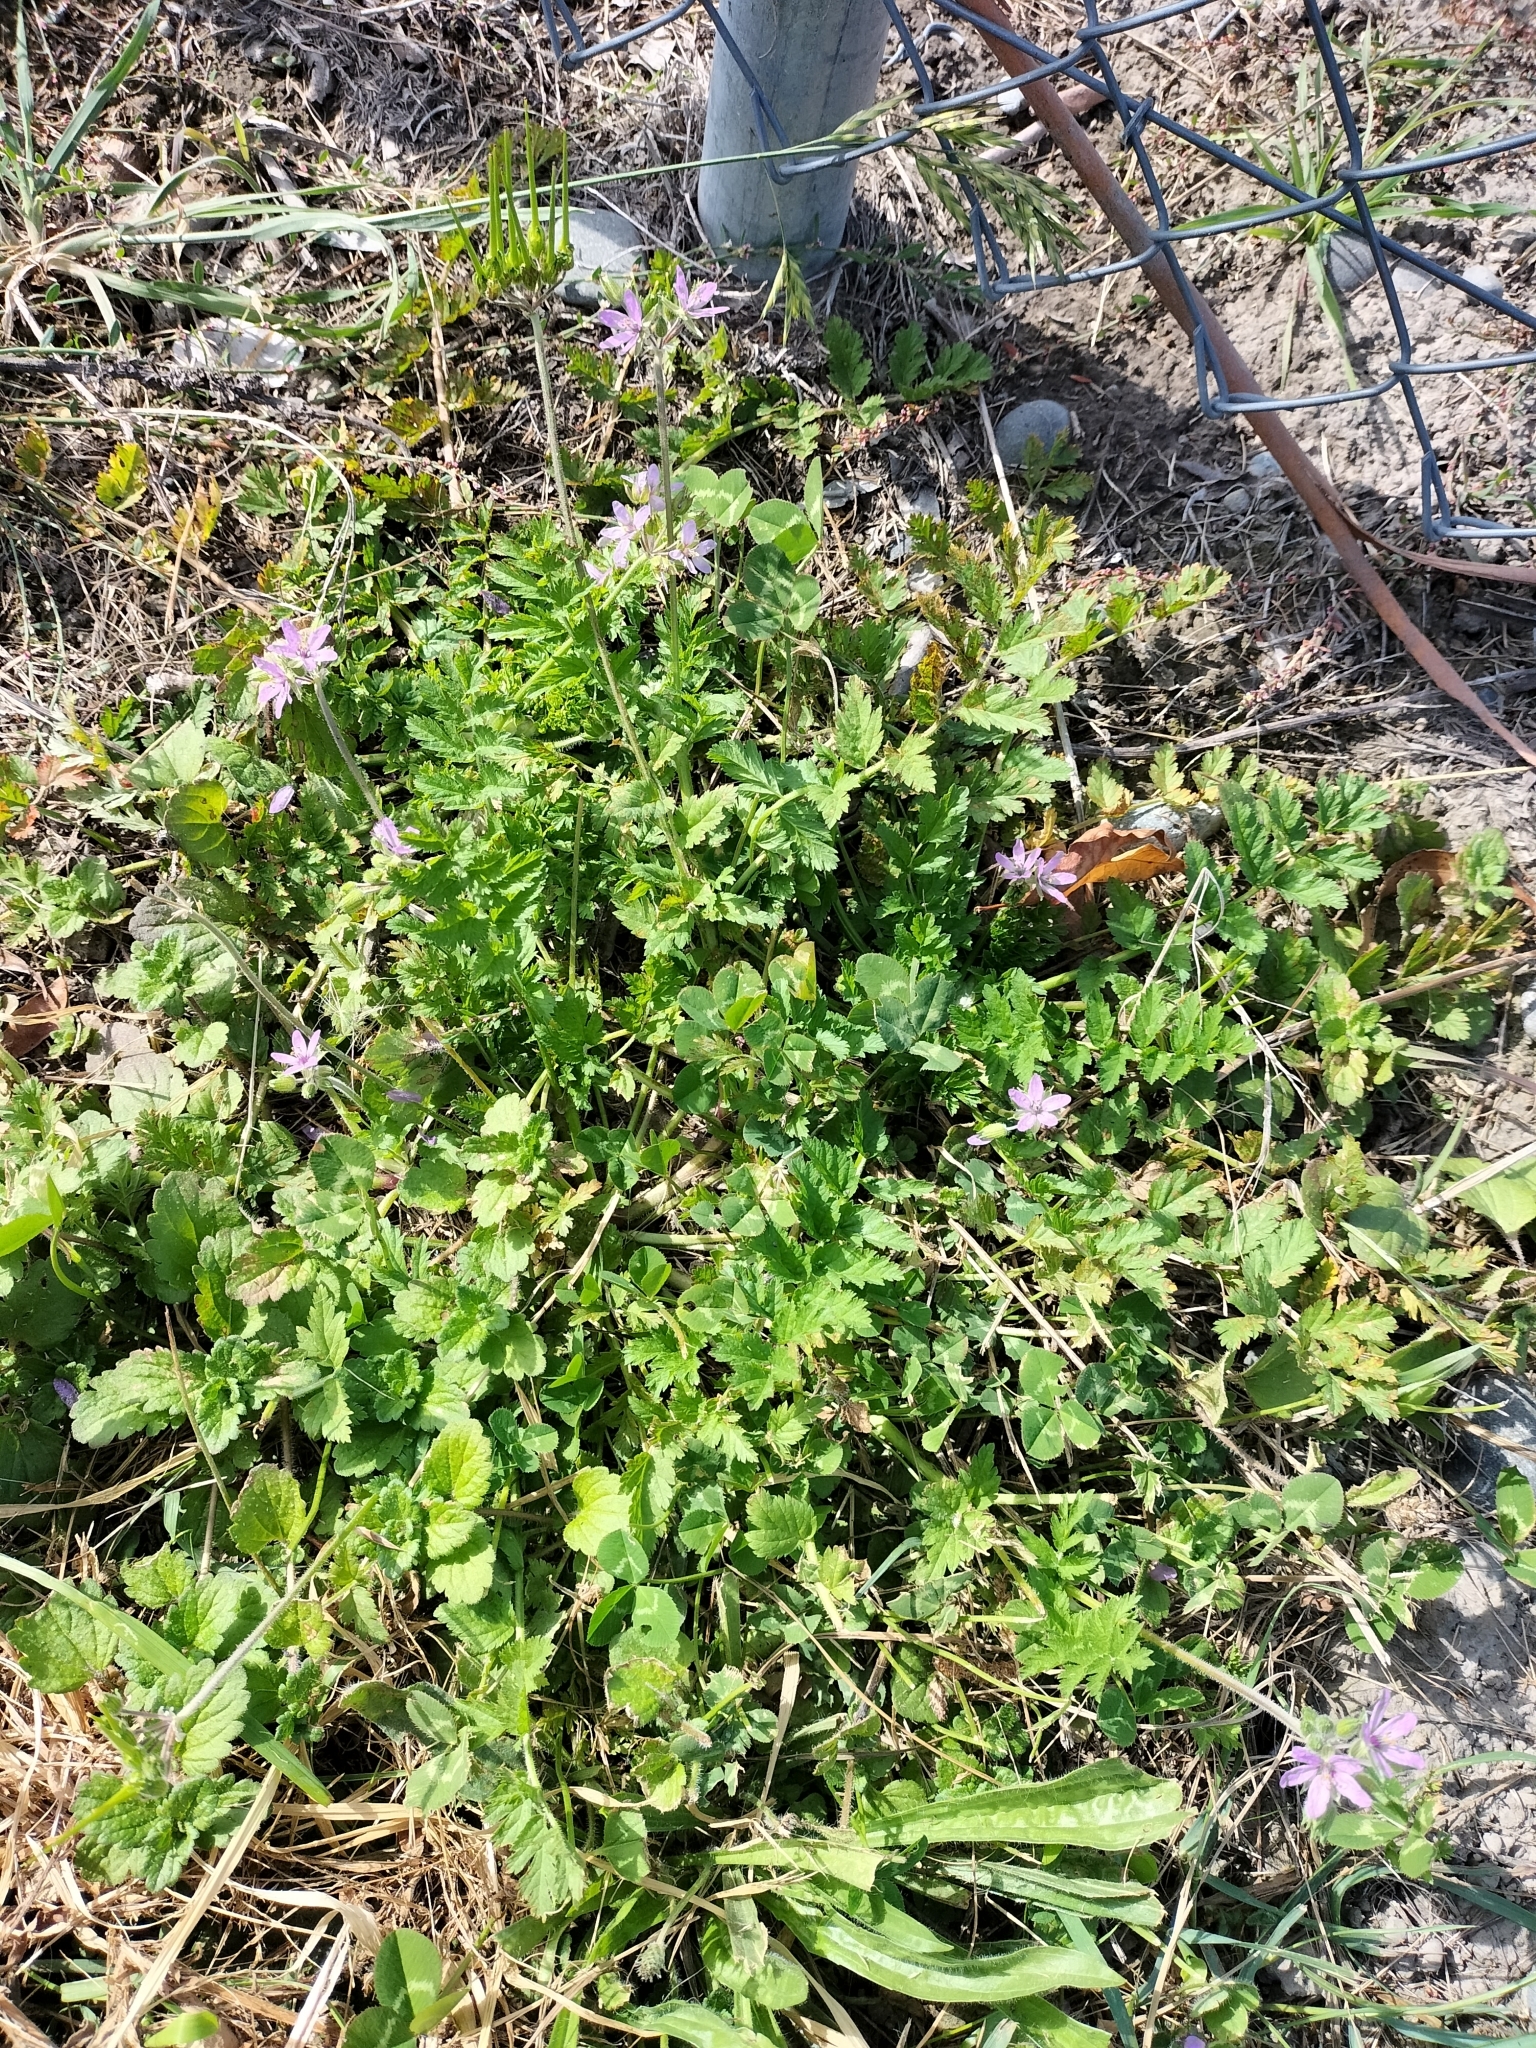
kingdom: Plantae
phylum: Tracheophyta
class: Magnoliopsida
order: Geraniales
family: Geraniaceae
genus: Erodium
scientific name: Erodium moschatum
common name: Musk stork's-bill
